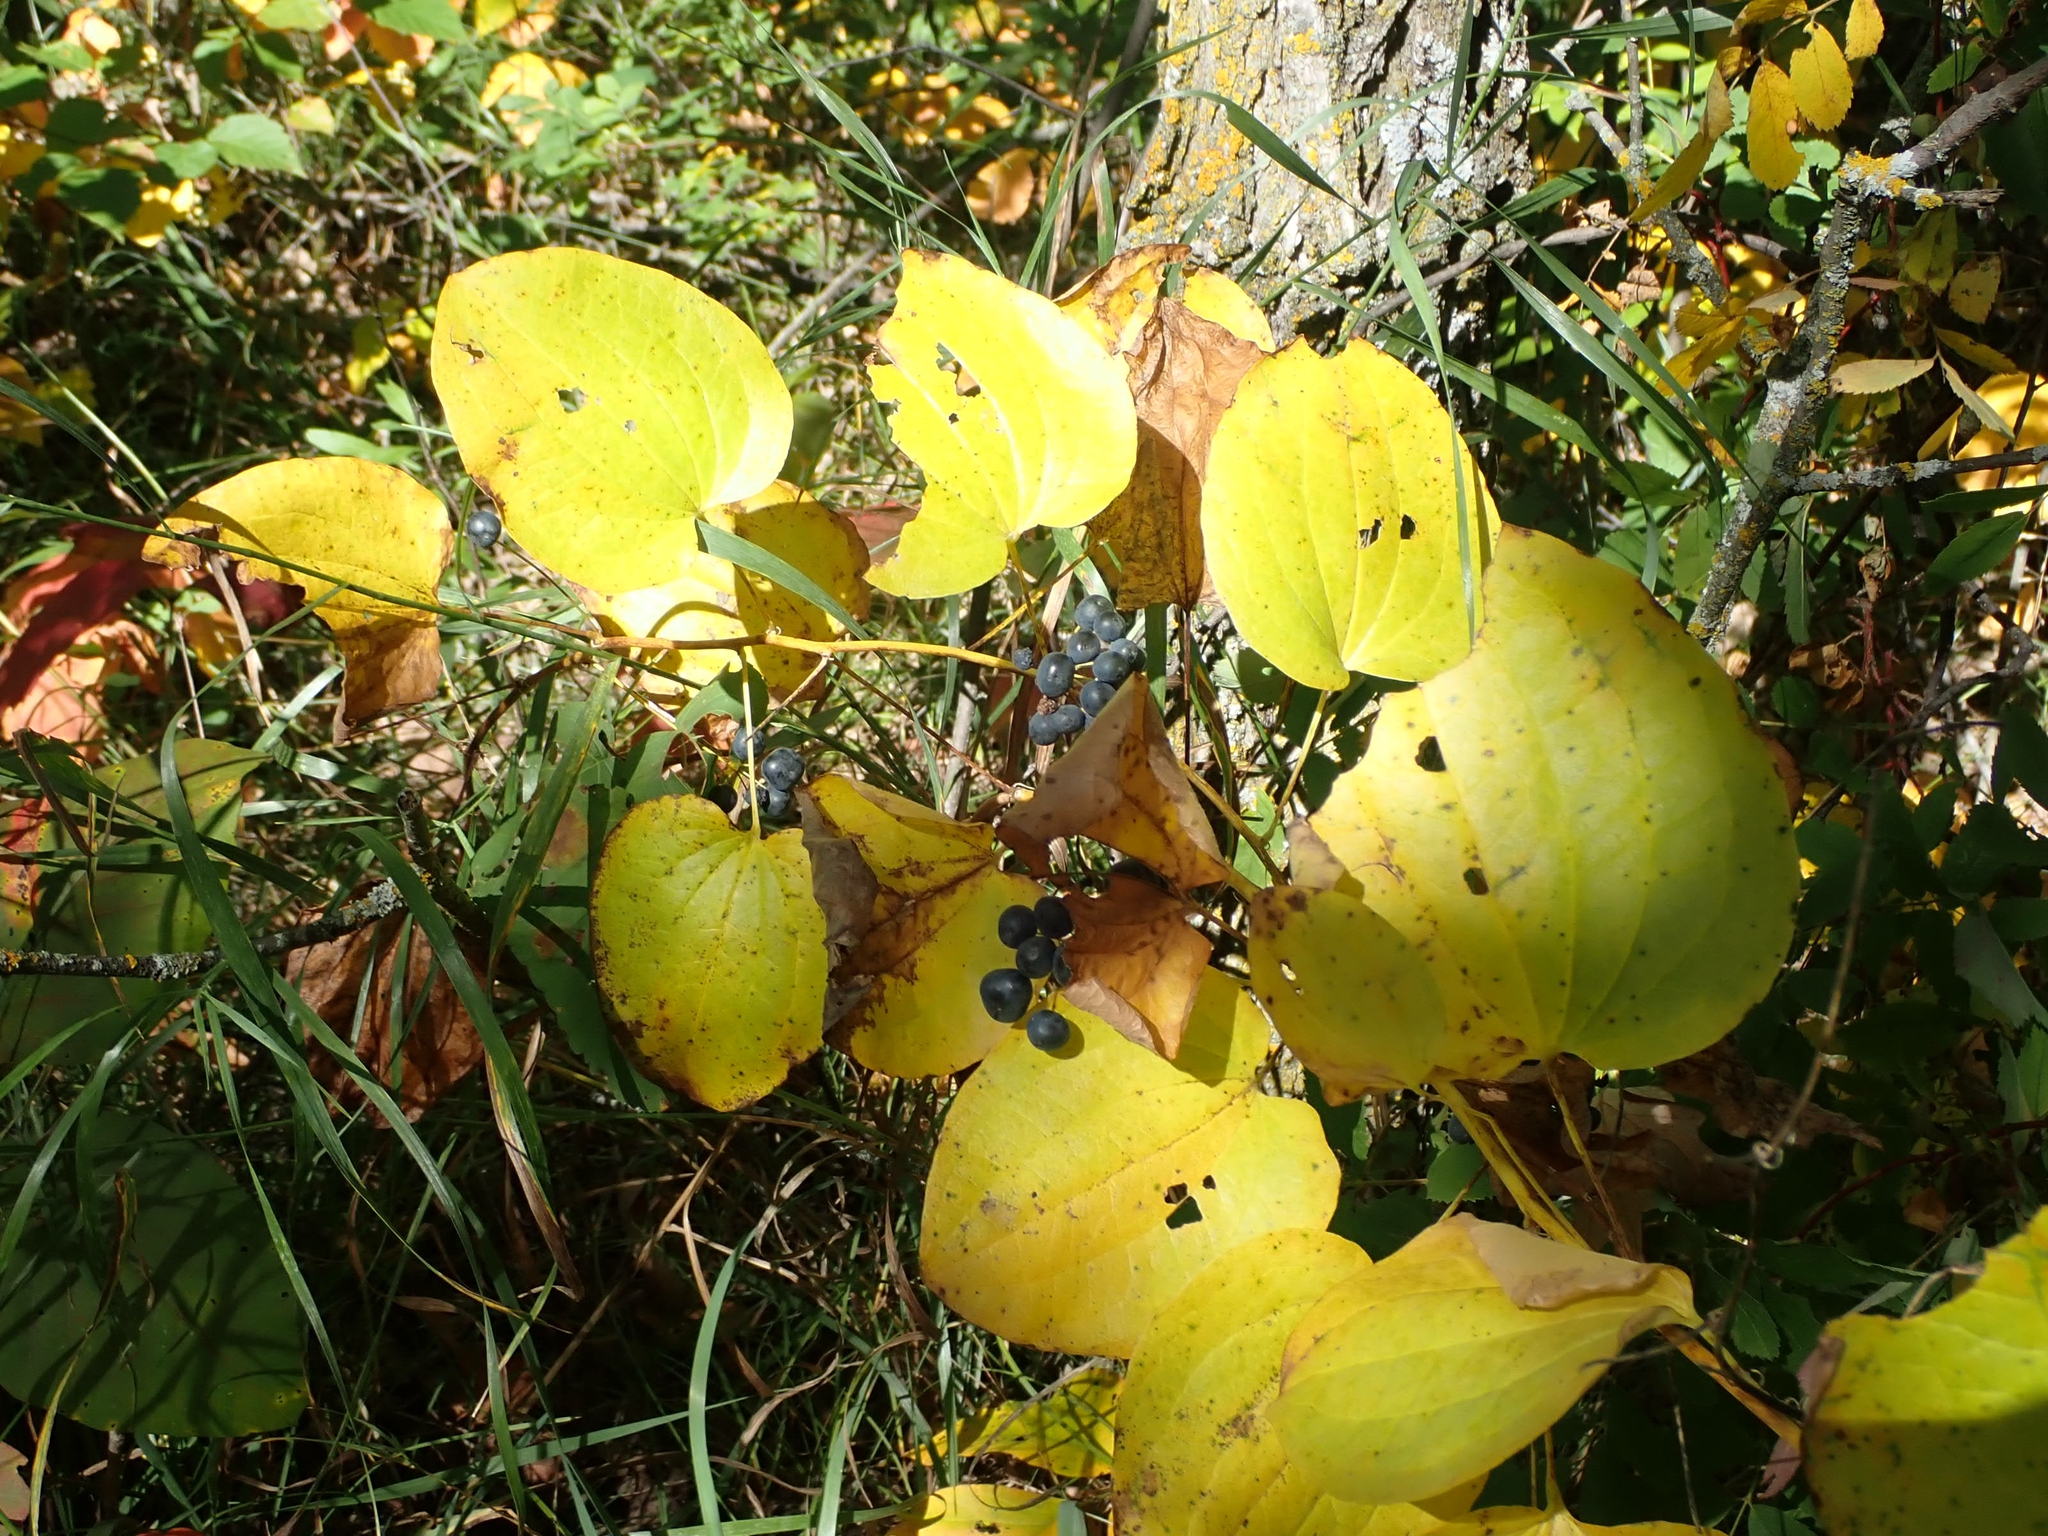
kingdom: Plantae
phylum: Tracheophyta
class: Liliopsida
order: Liliales
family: Smilacaceae
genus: Smilax
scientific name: Smilax lasioneura
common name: Blue ridge carrionflower
